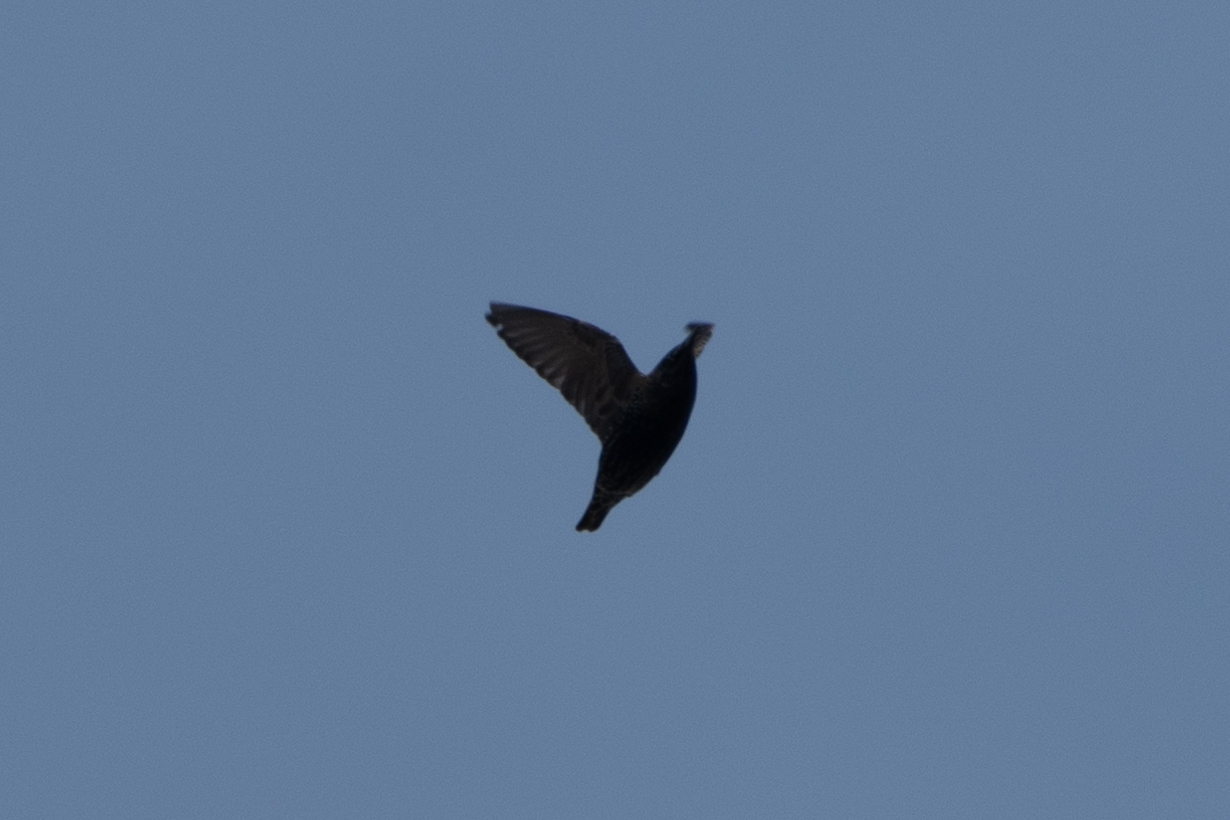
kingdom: Animalia
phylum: Chordata
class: Aves
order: Passeriformes
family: Sturnidae
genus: Sturnus
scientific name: Sturnus vulgaris
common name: Common starling
